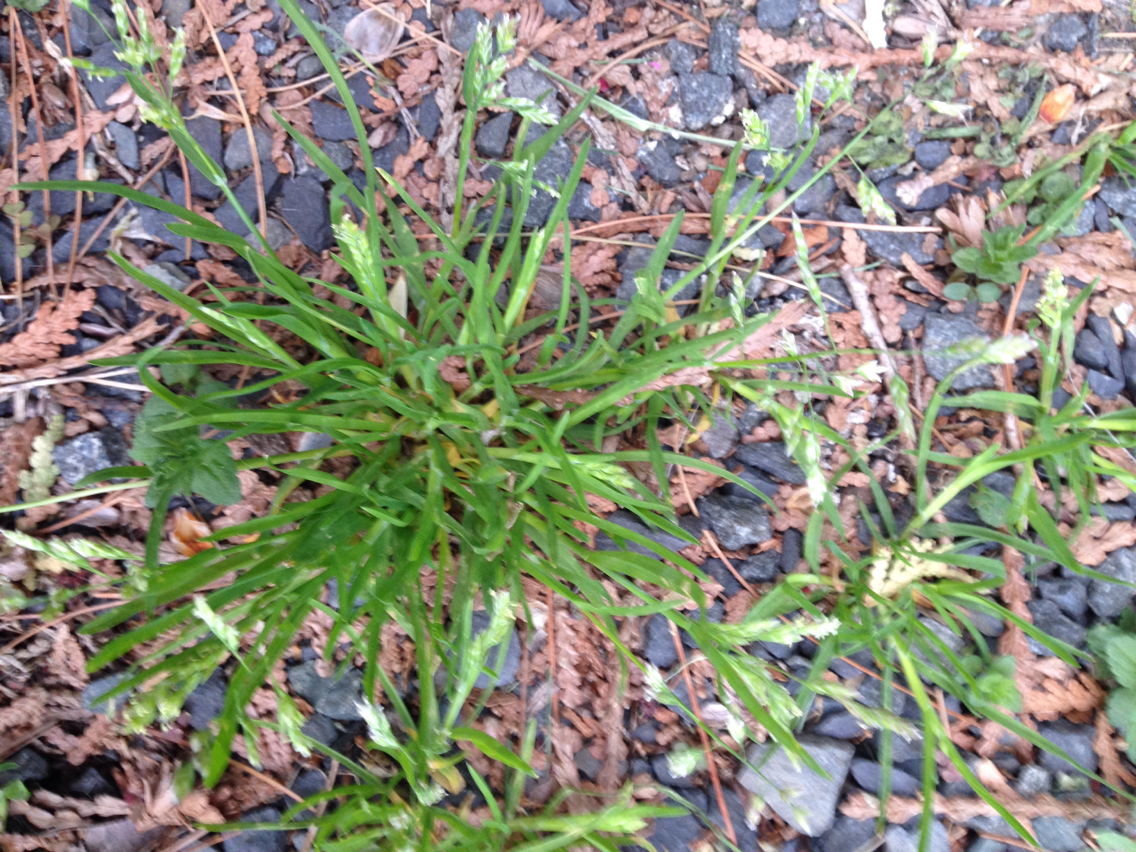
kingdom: Plantae
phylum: Tracheophyta
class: Liliopsida
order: Poales
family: Poaceae
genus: Poa
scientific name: Poa annua
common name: Annual bluegrass
